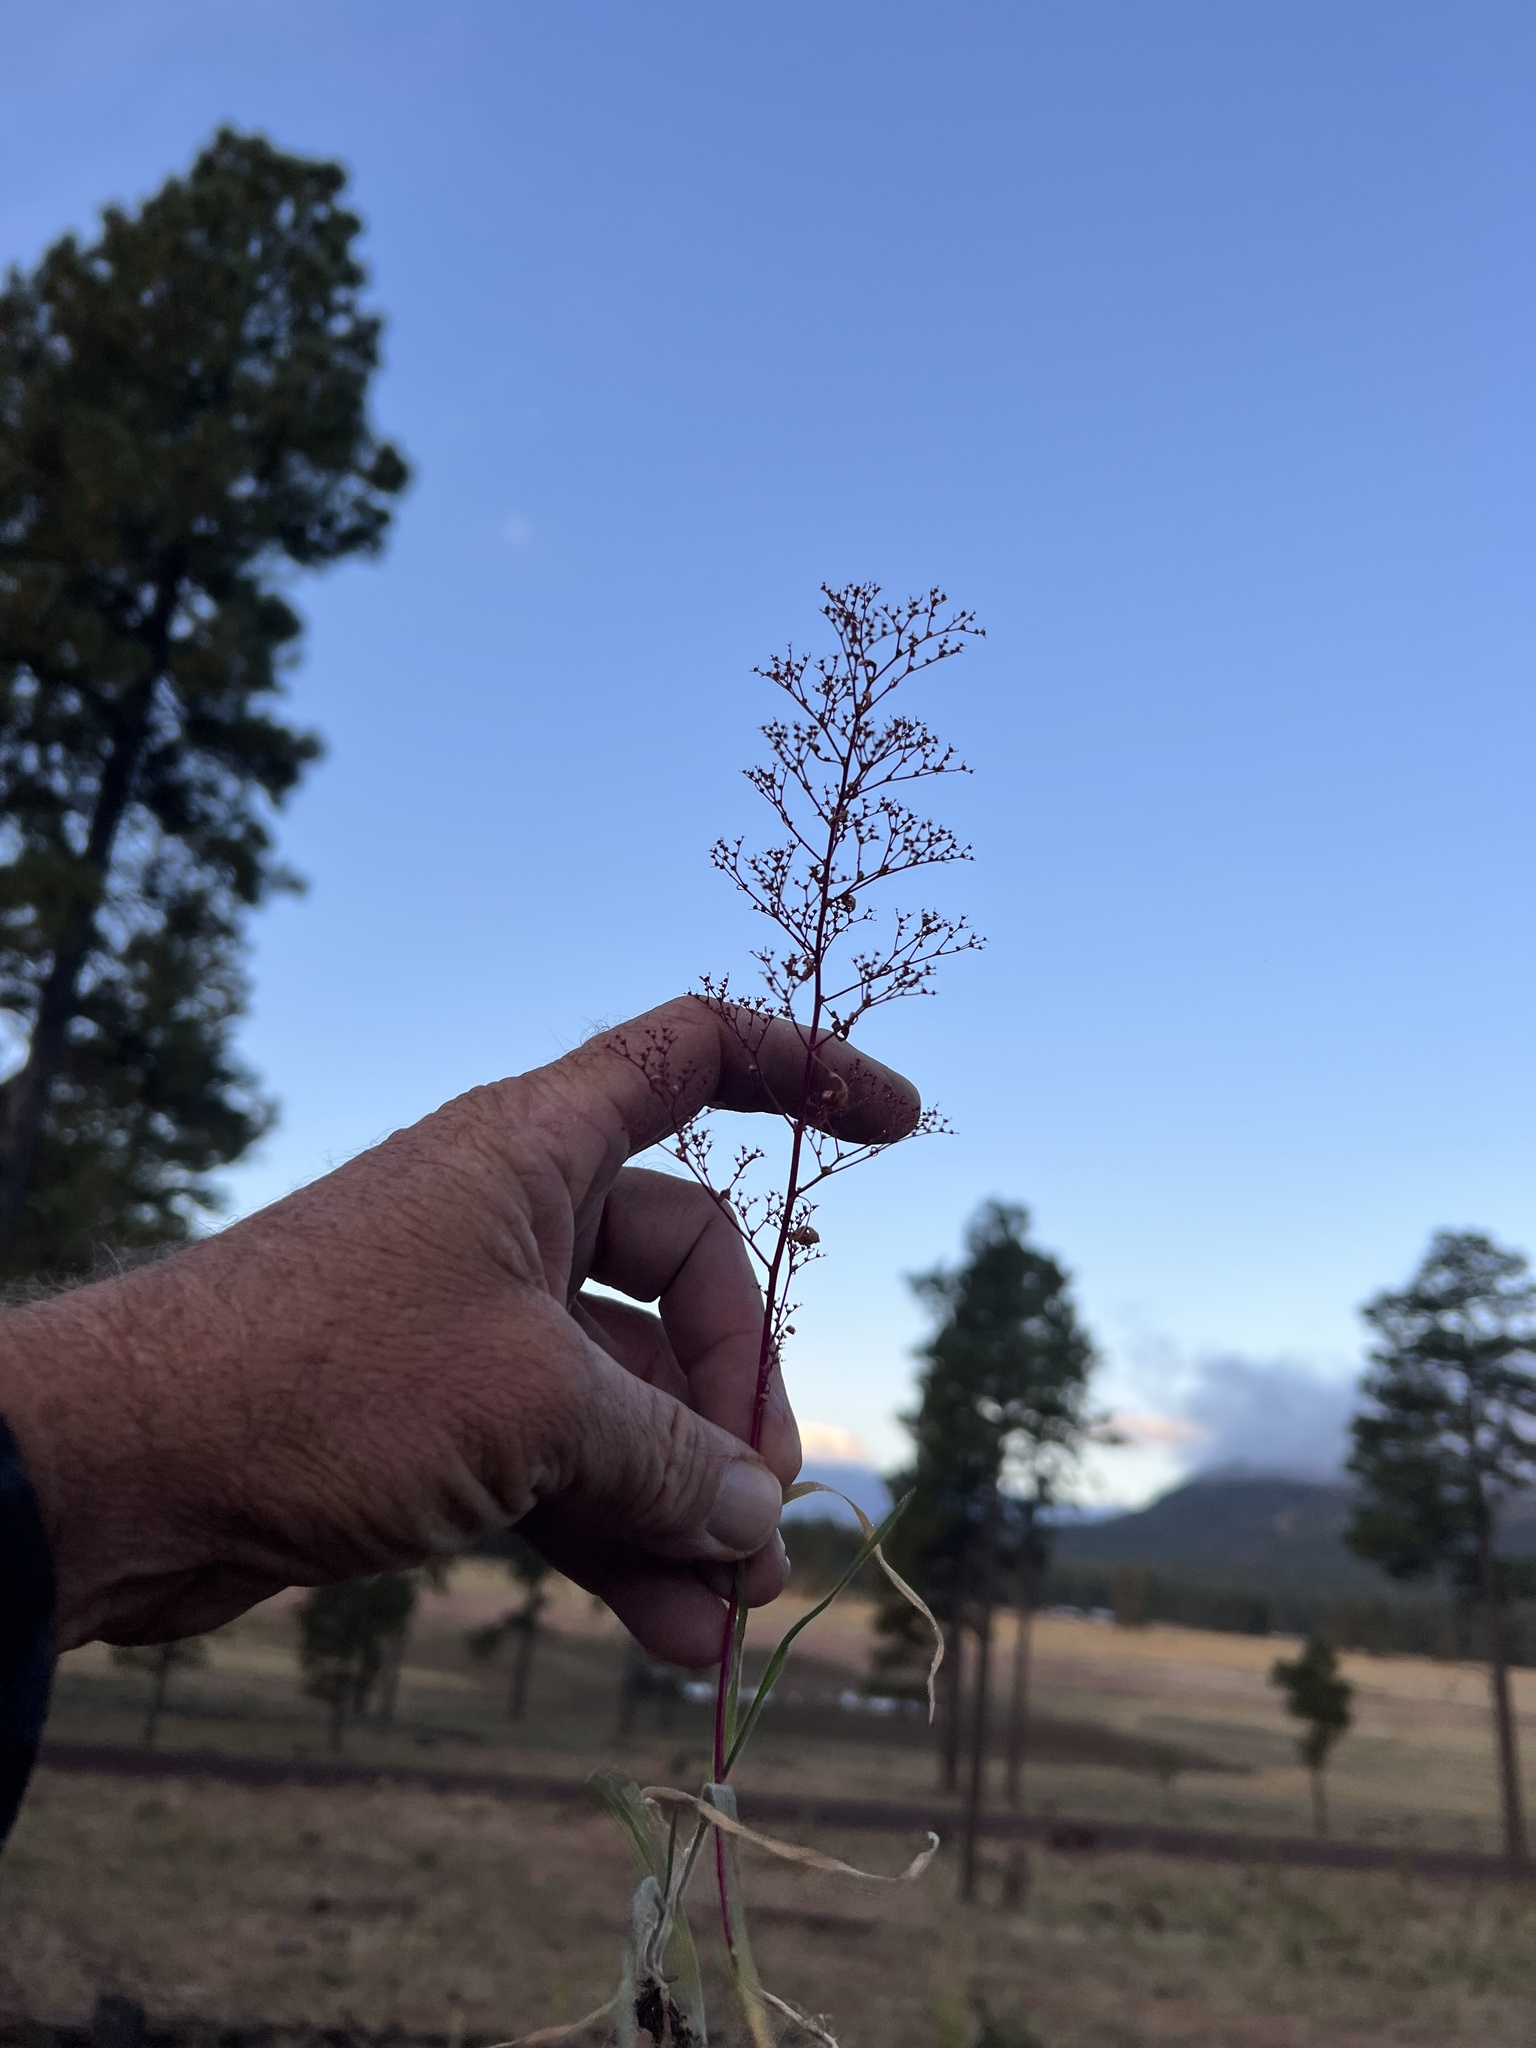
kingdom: Plantae
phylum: Tracheophyta
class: Magnoliopsida
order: Caryophyllales
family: Amaranthaceae
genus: Dysphania
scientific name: Dysphania incisa
